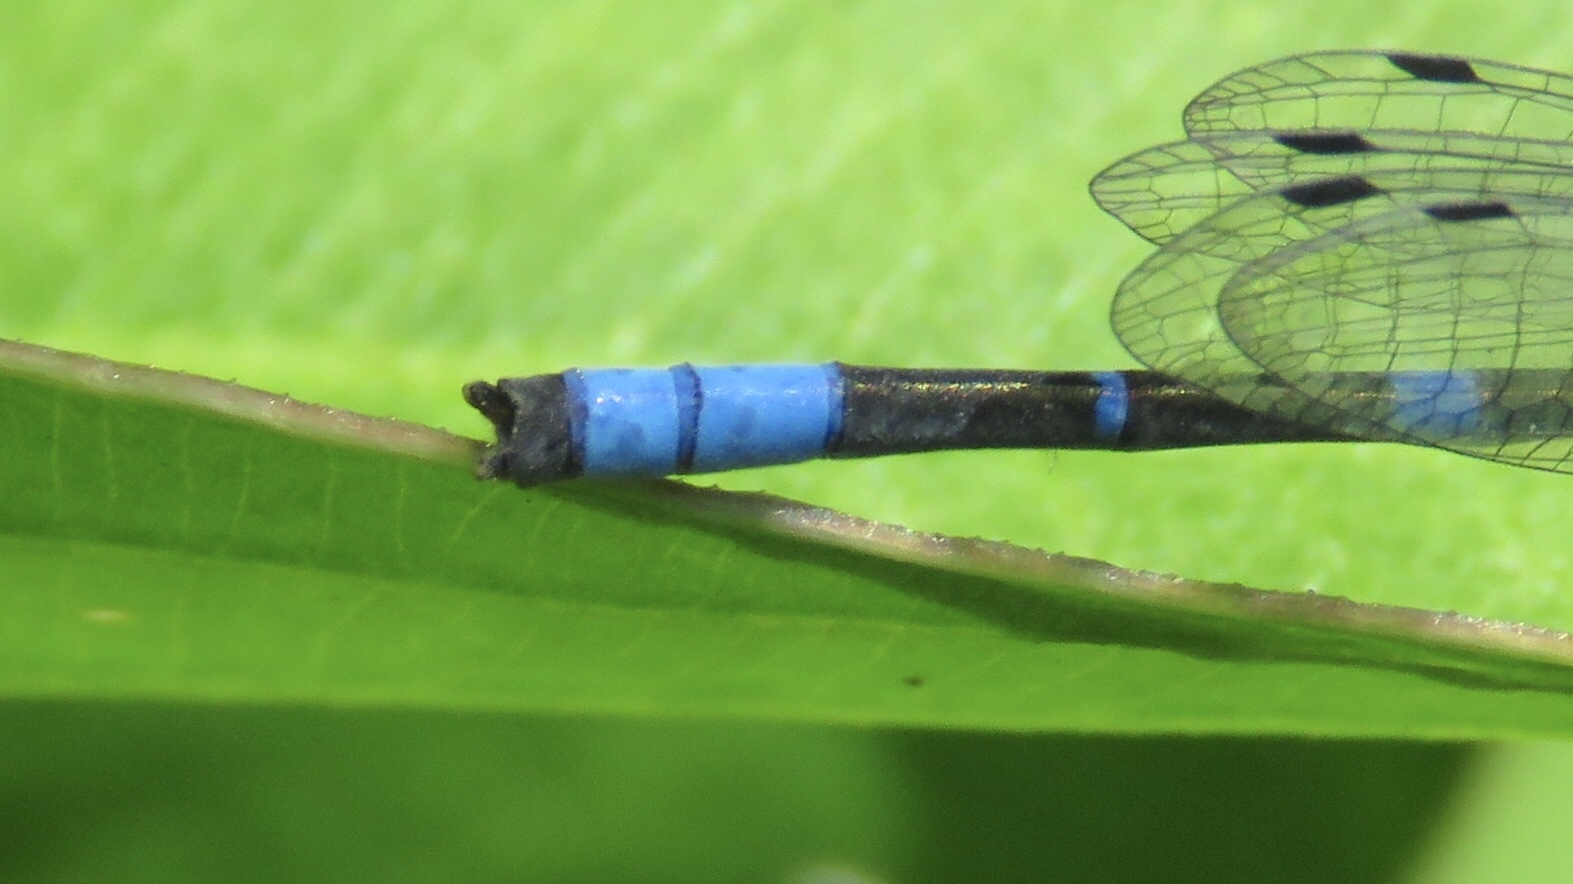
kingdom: Animalia
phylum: Arthropoda
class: Insecta
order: Odonata
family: Coenagrionidae
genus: Enallagma
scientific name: Enallagma carunculatum
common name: Tule bluet
